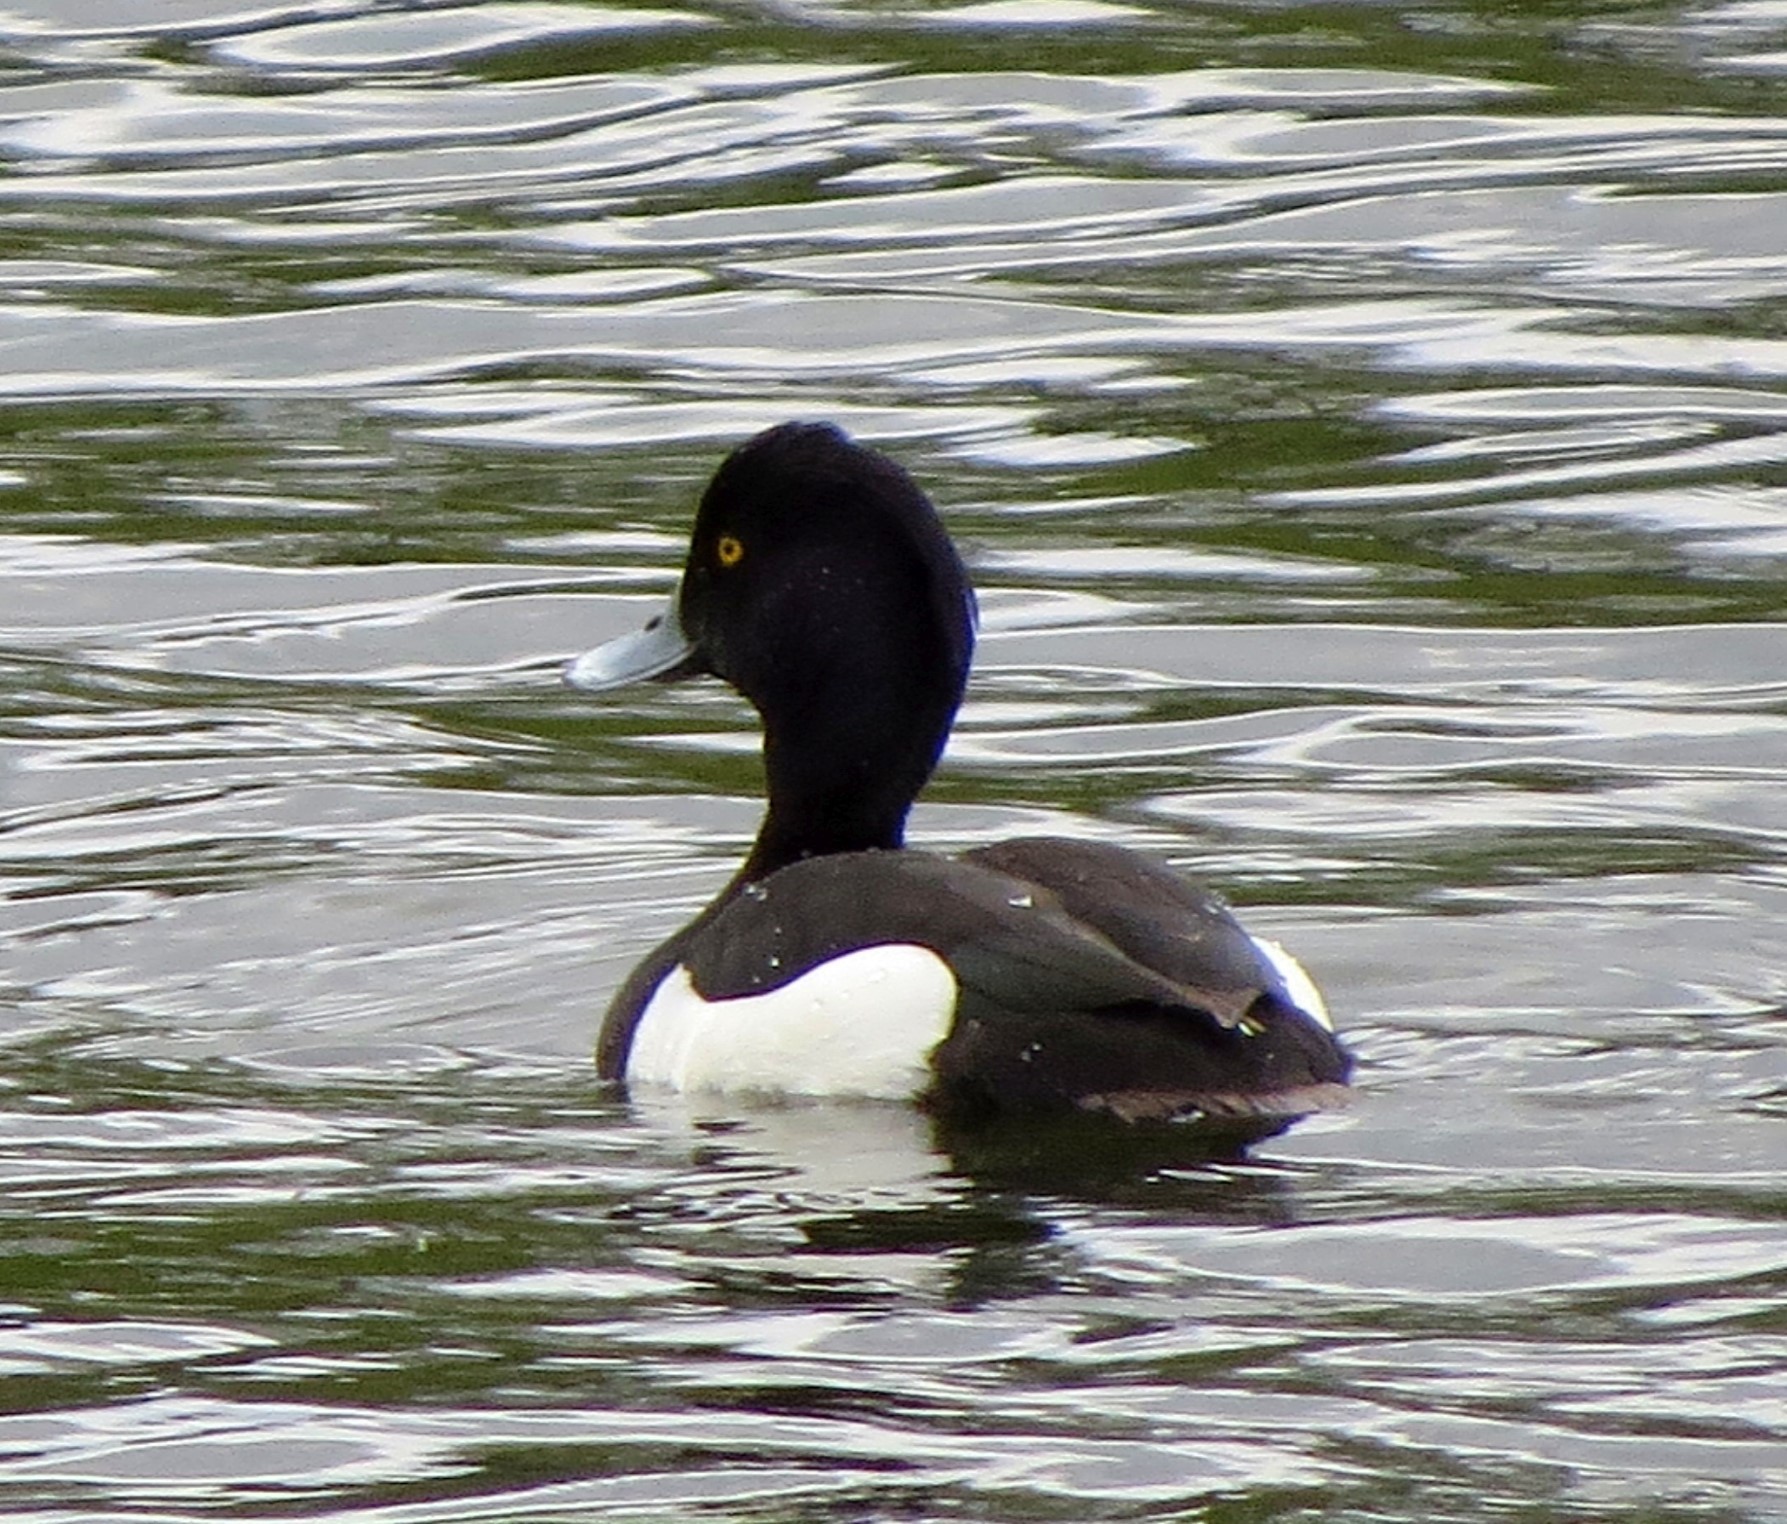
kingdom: Animalia
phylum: Chordata
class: Aves
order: Anseriformes
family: Anatidae
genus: Aythya
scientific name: Aythya fuligula
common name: Tufted duck
